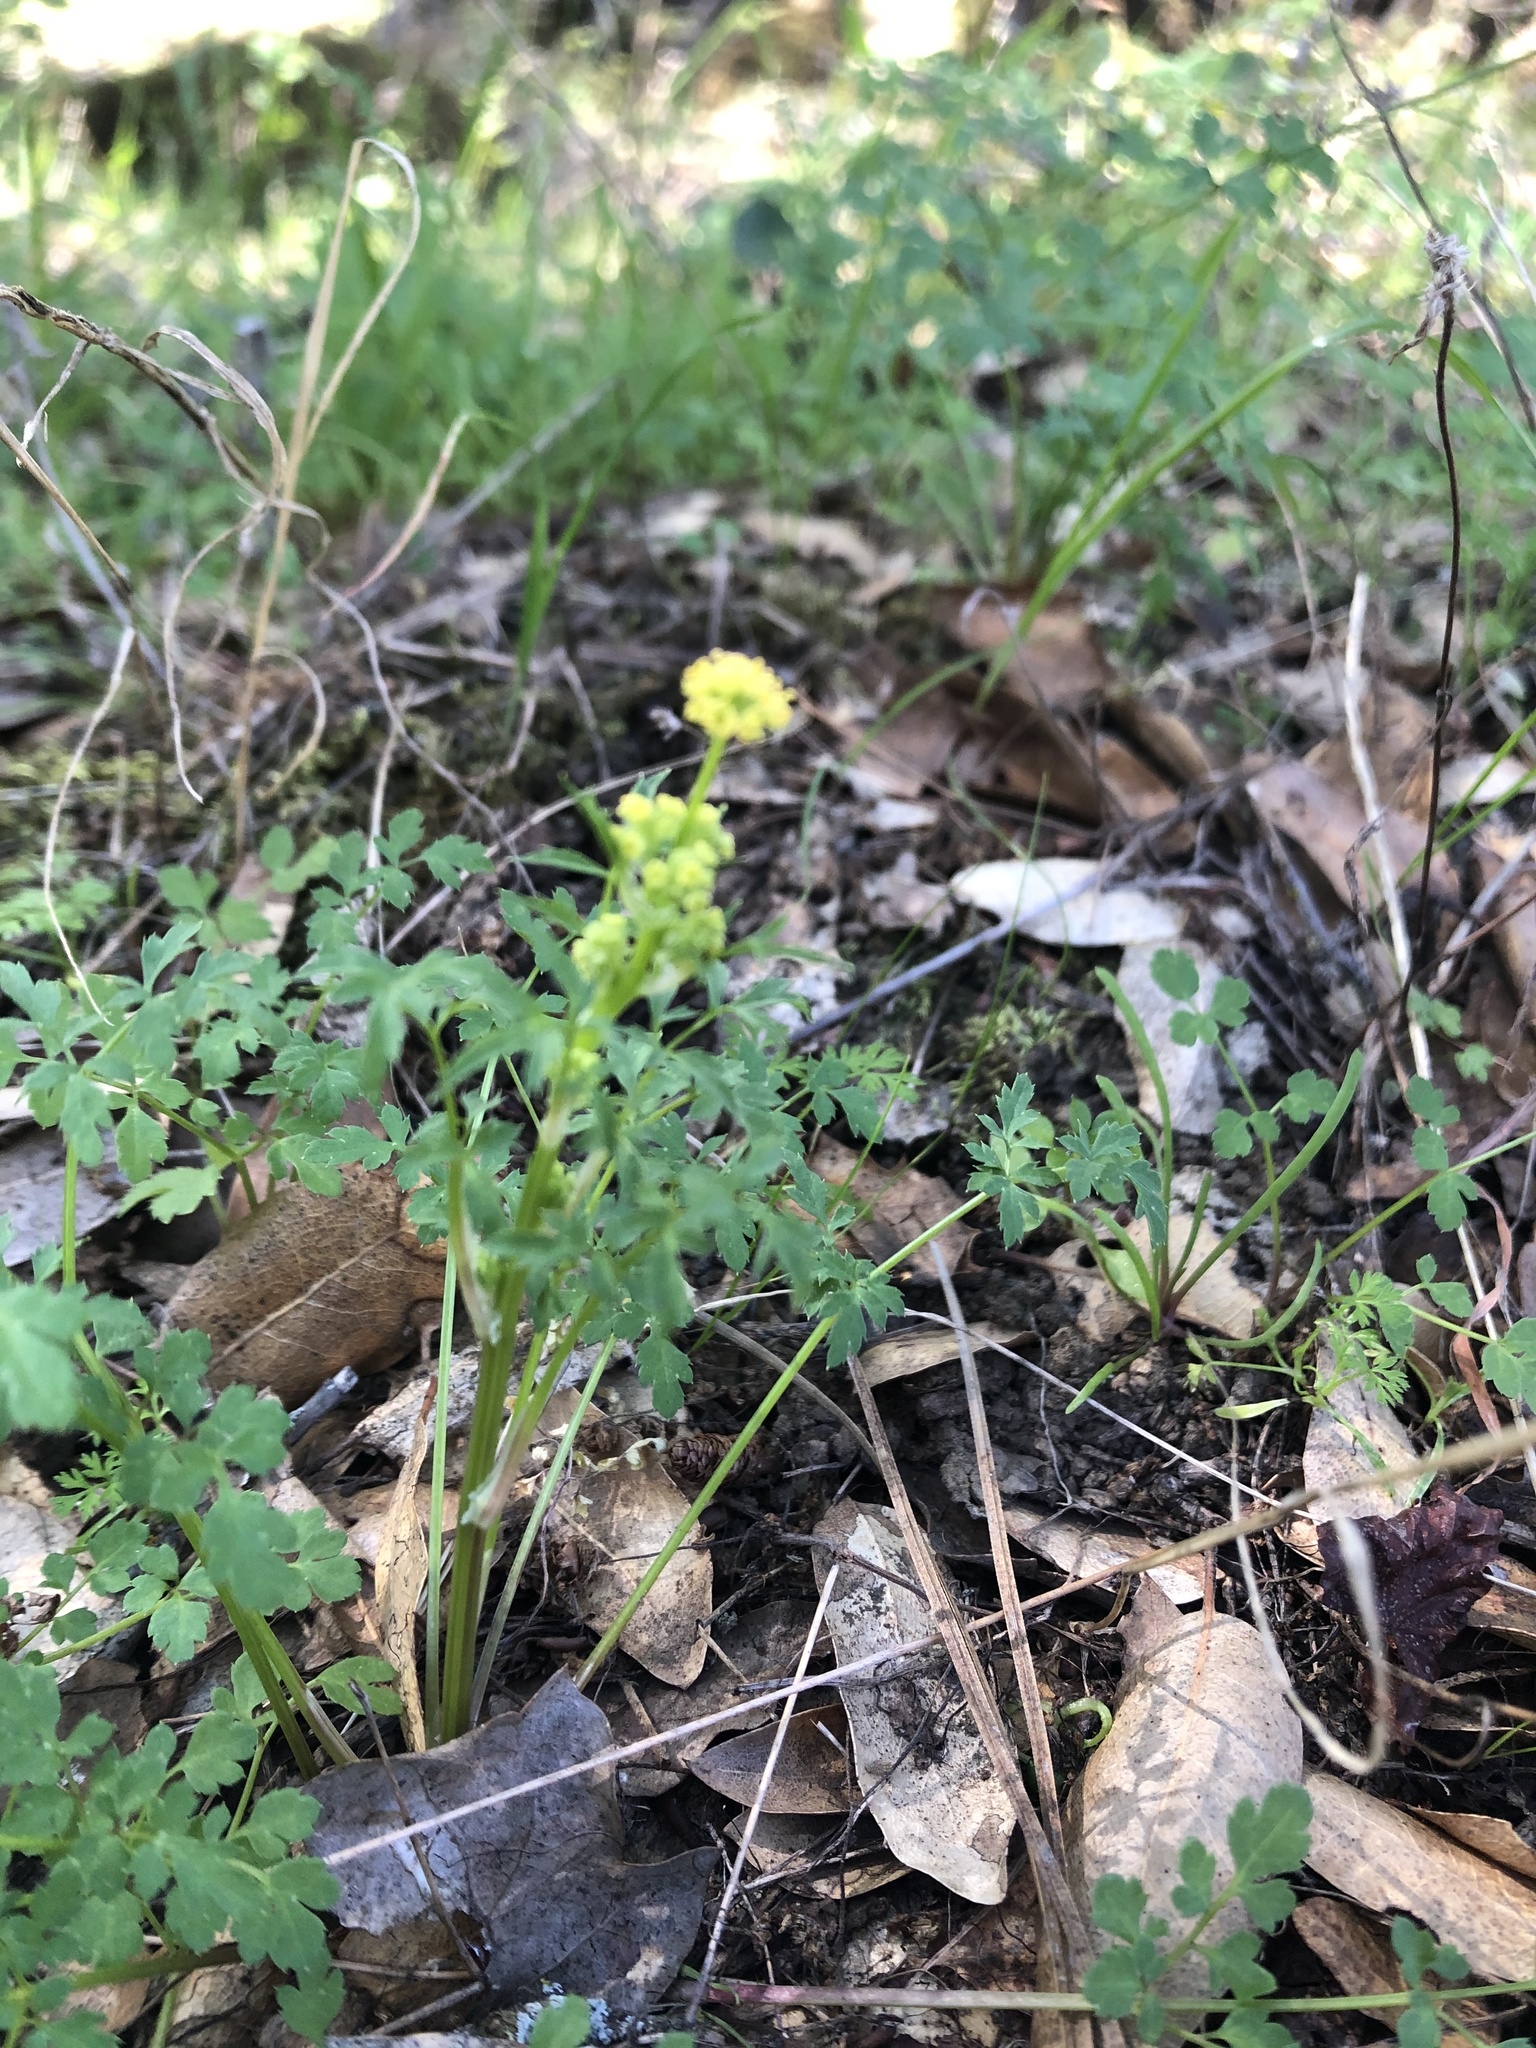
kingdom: Plantae
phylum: Tracheophyta
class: Magnoliopsida
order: Apiales
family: Apiaceae
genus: Sanicula
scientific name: Sanicula bipinnata
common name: Poison sanicle
